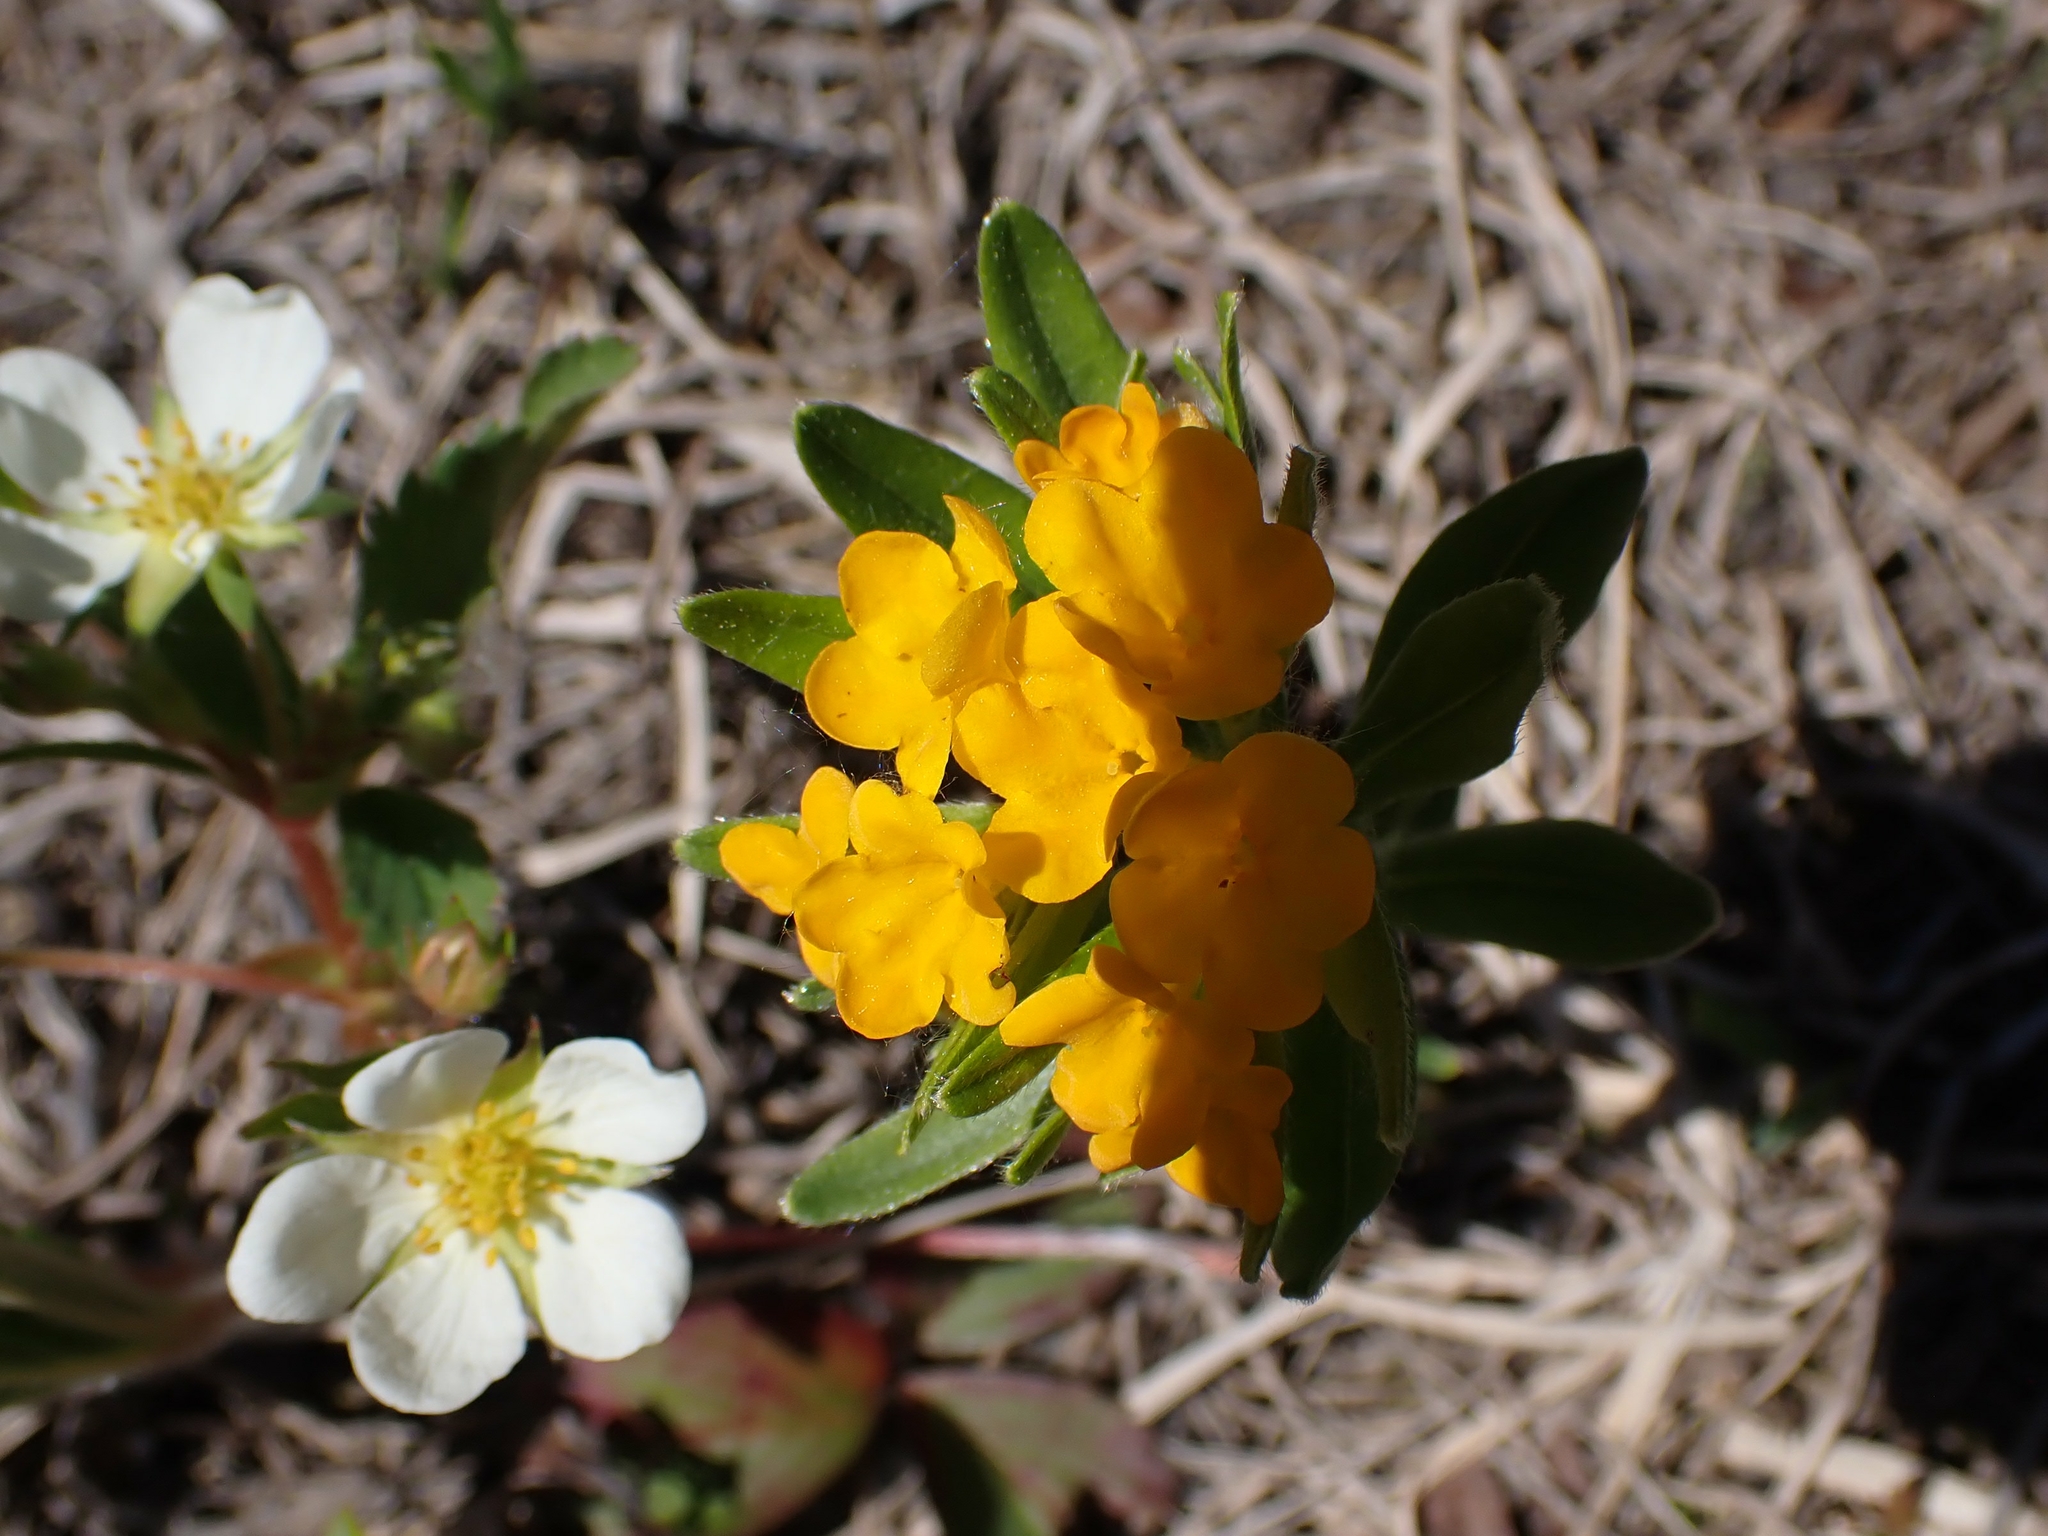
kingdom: Plantae
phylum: Tracheophyta
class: Magnoliopsida
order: Boraginales
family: Boraginaceae
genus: Lithospermum
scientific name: Lithospermum canescens
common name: Hoary puccoon
